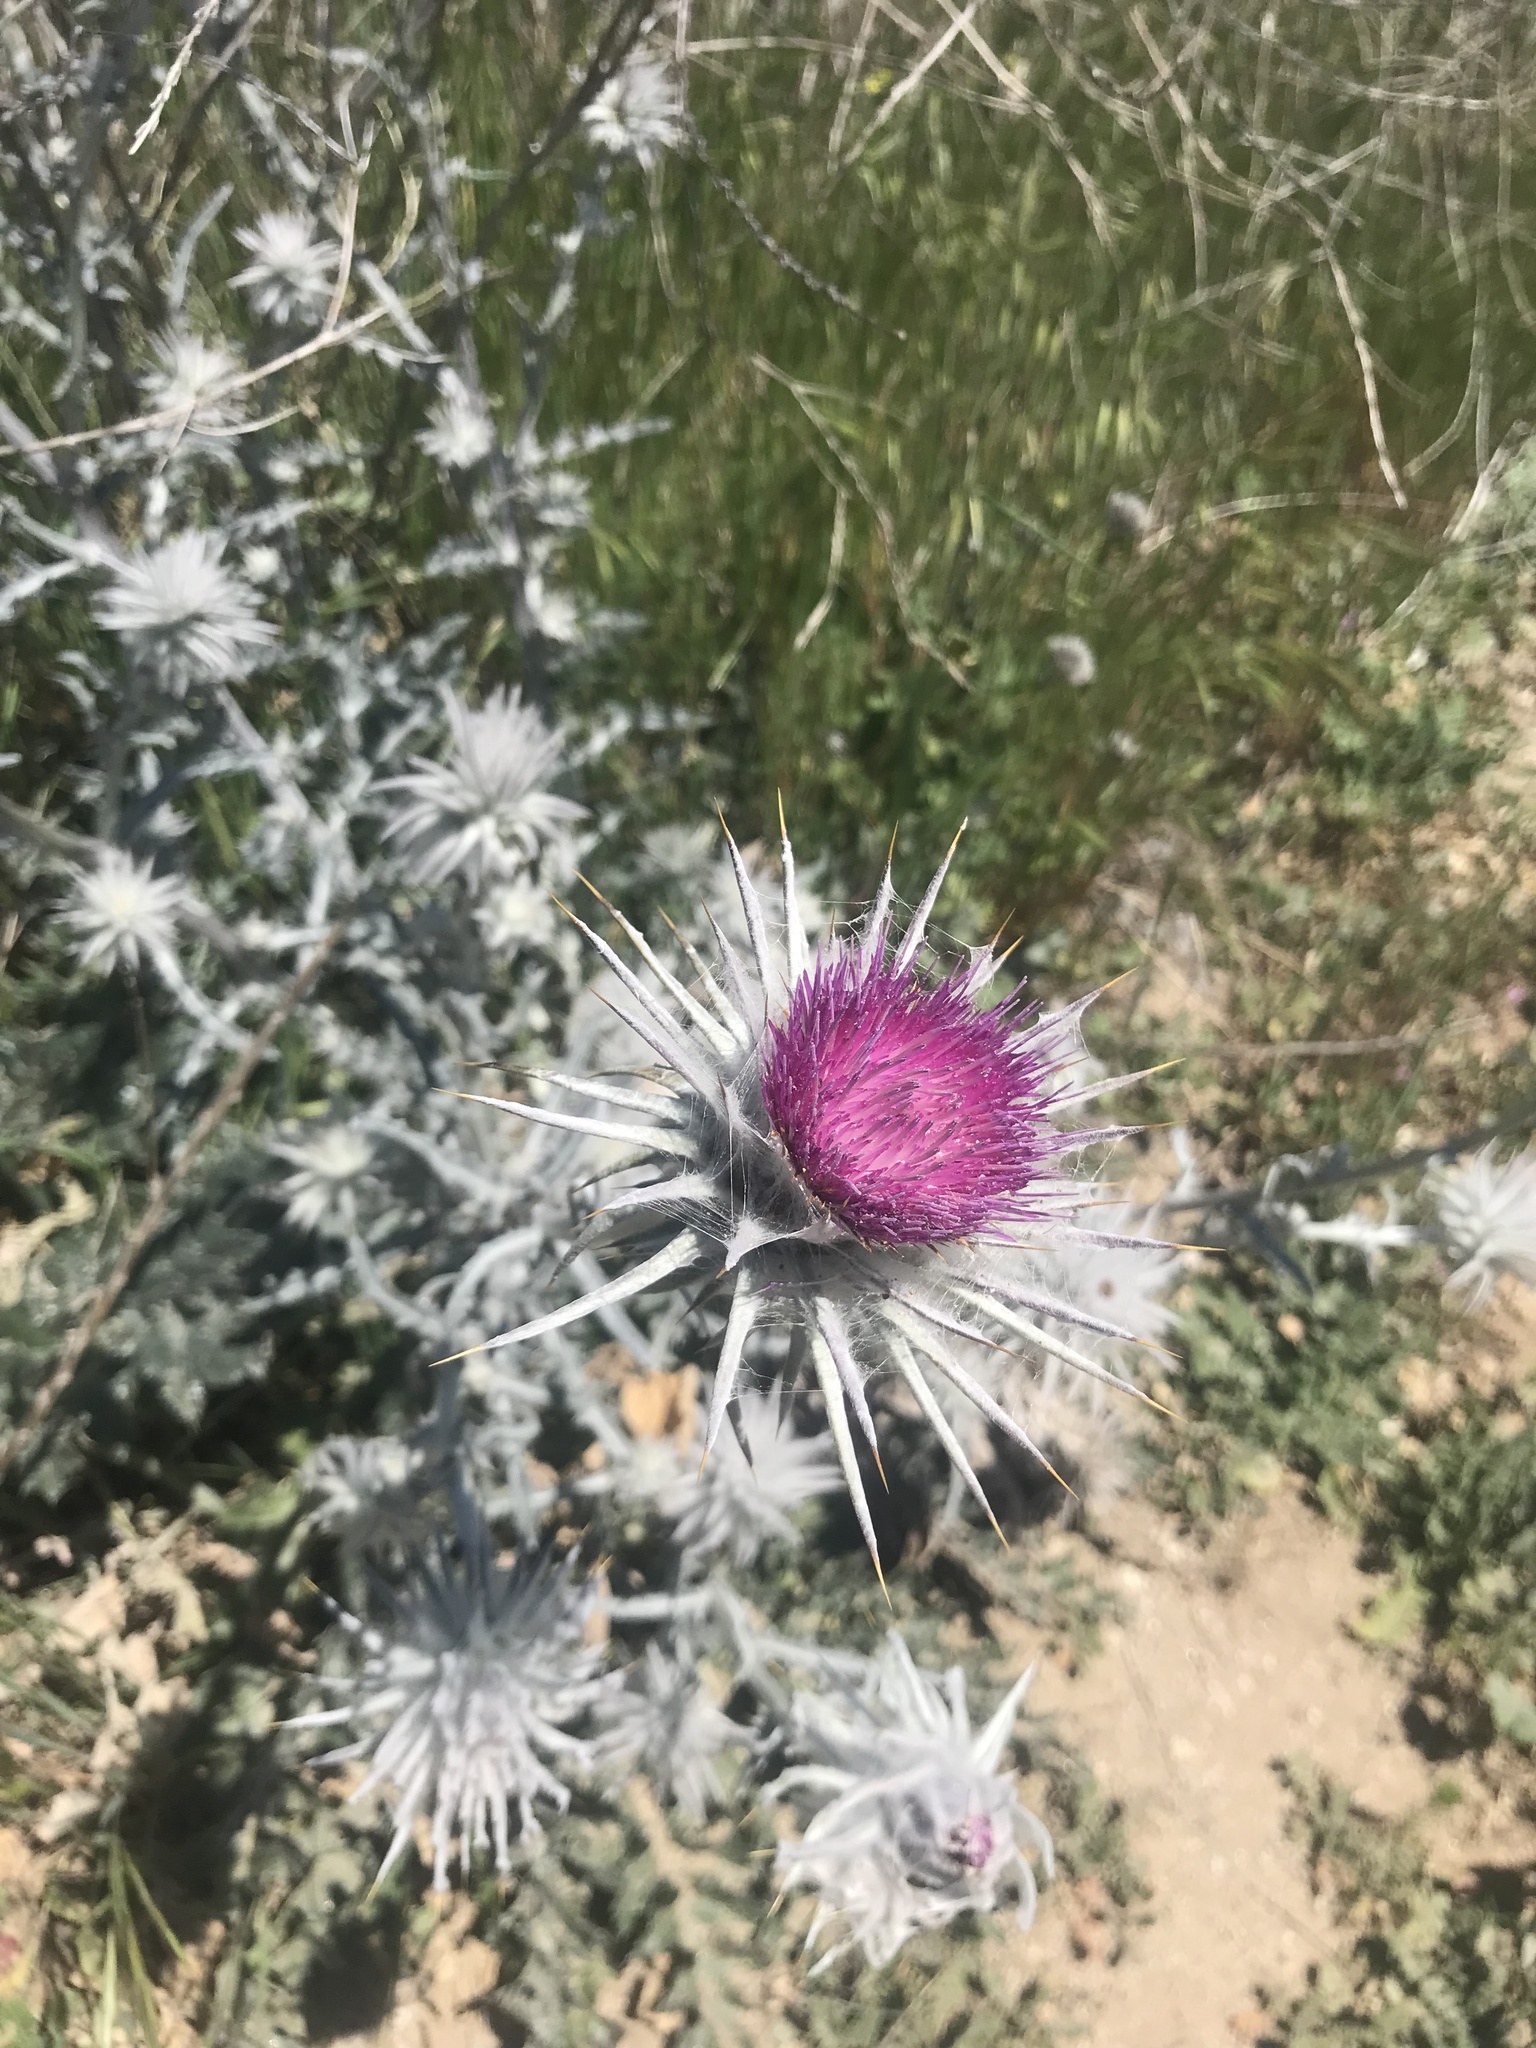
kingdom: Plantae
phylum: Tracheophyta
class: Magnoliopsida
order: Asterales
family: Asteraceae
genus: Cirsium
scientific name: Cirsium occidentale
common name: Western thistle
